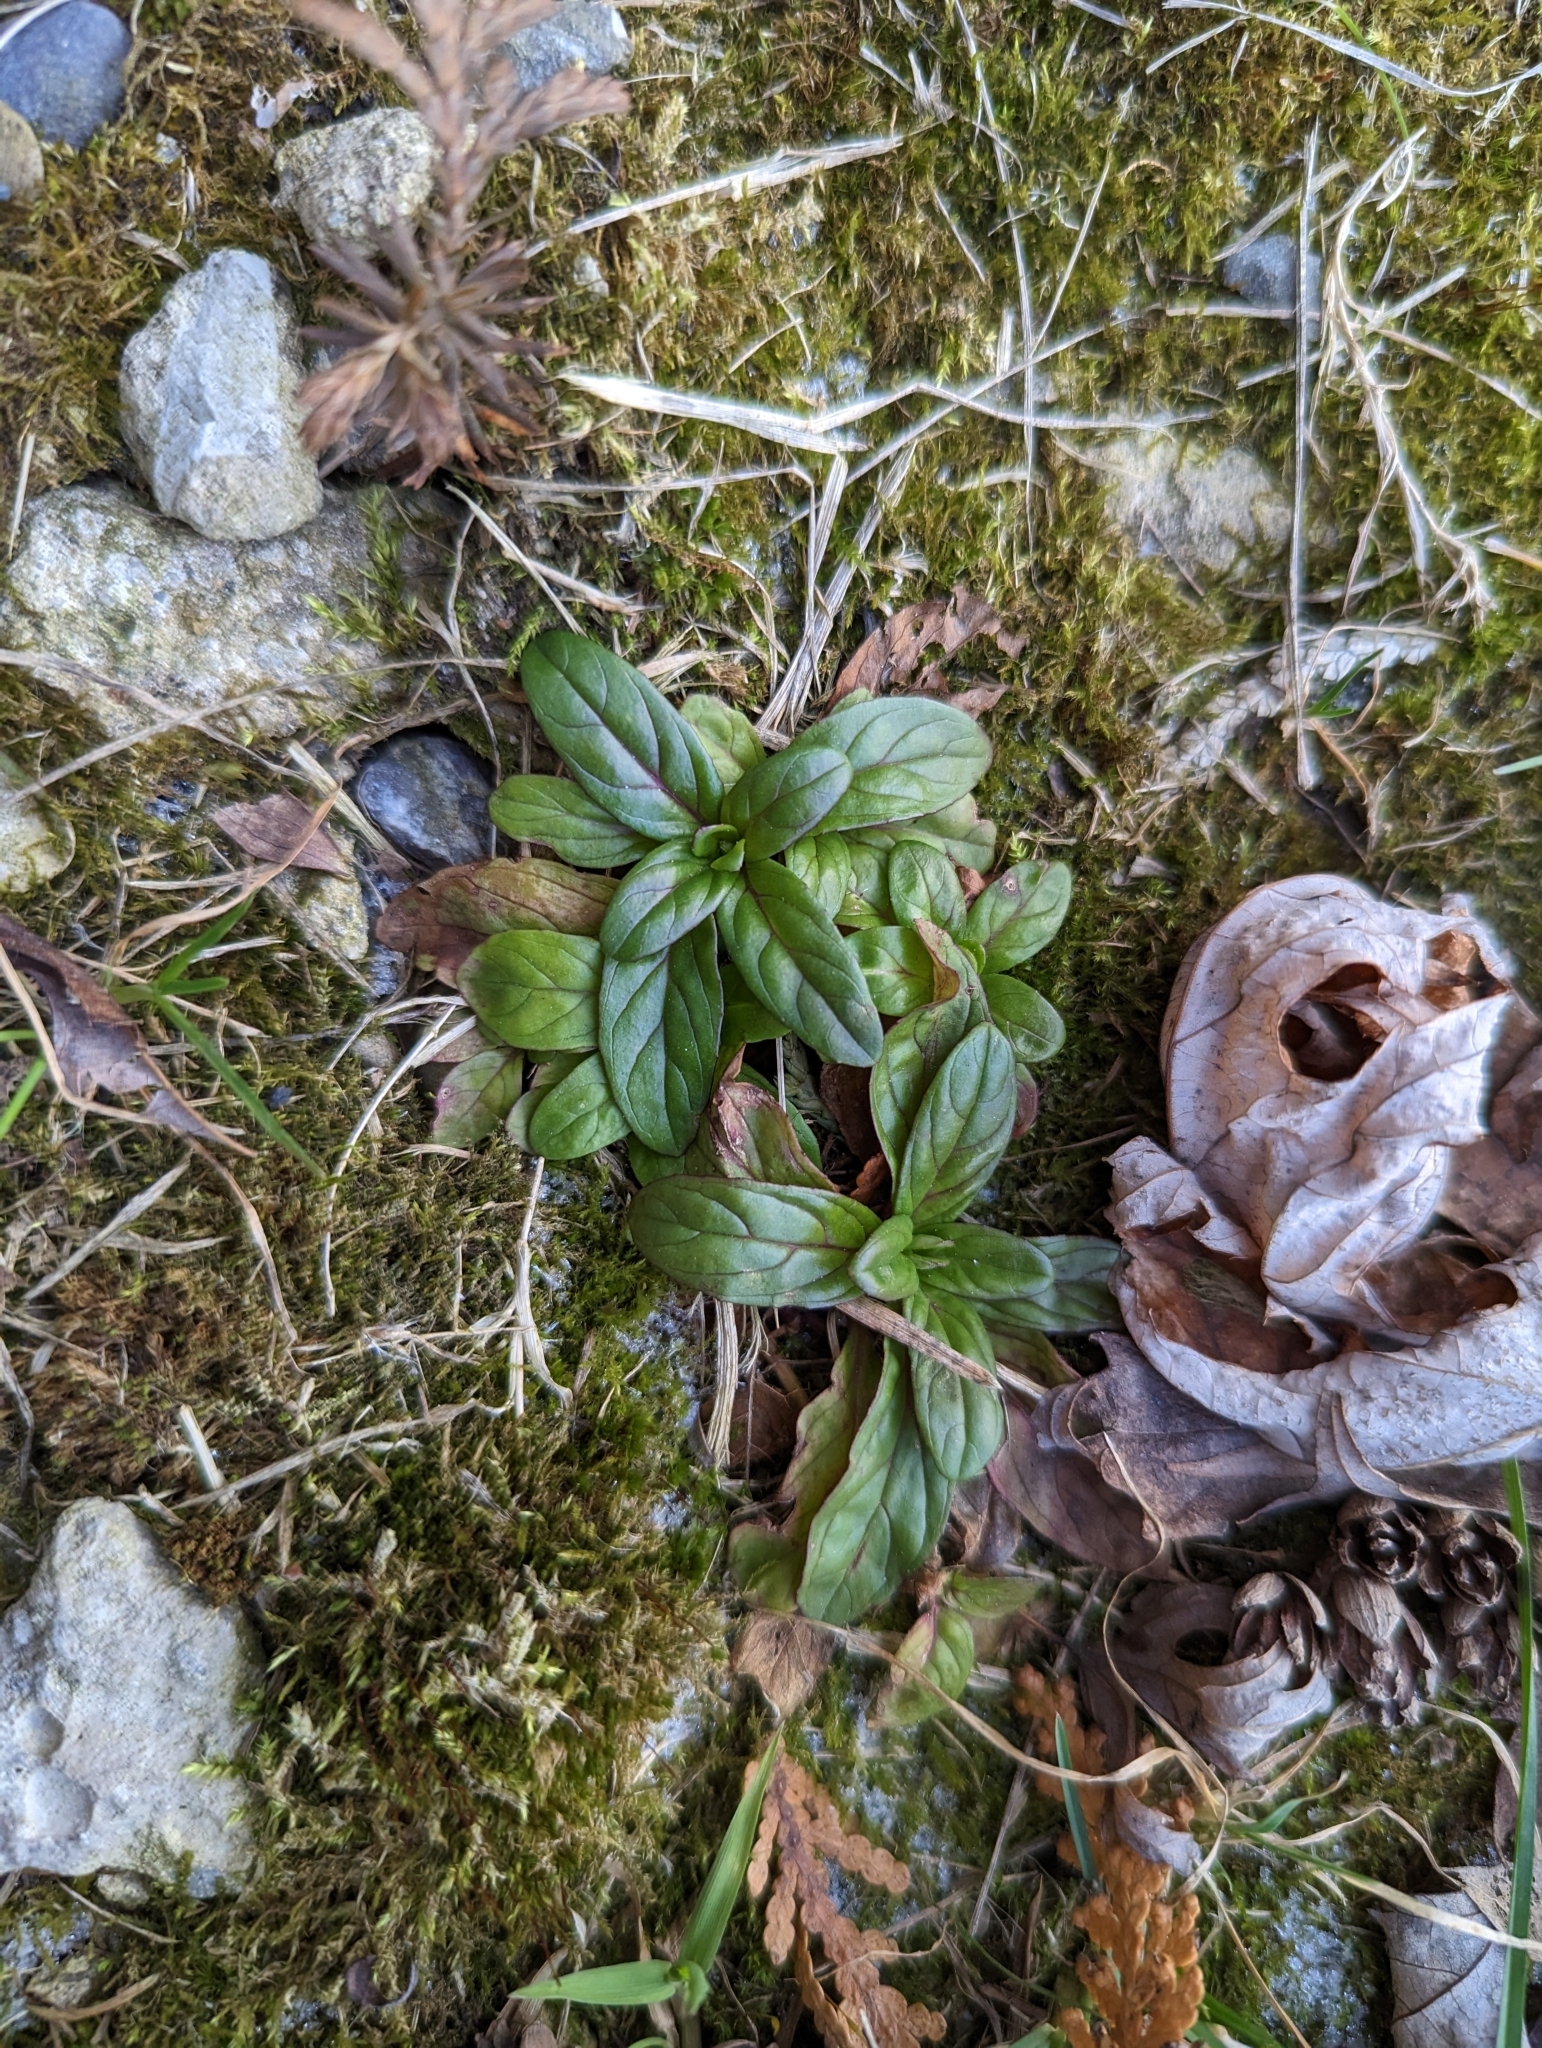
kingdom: Plantae
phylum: Tracheophyta
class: Magnoliopsida
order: Myrtales
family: Onagraceae
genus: Epilobium
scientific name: Epilobium ciliatum
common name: American willowherb
